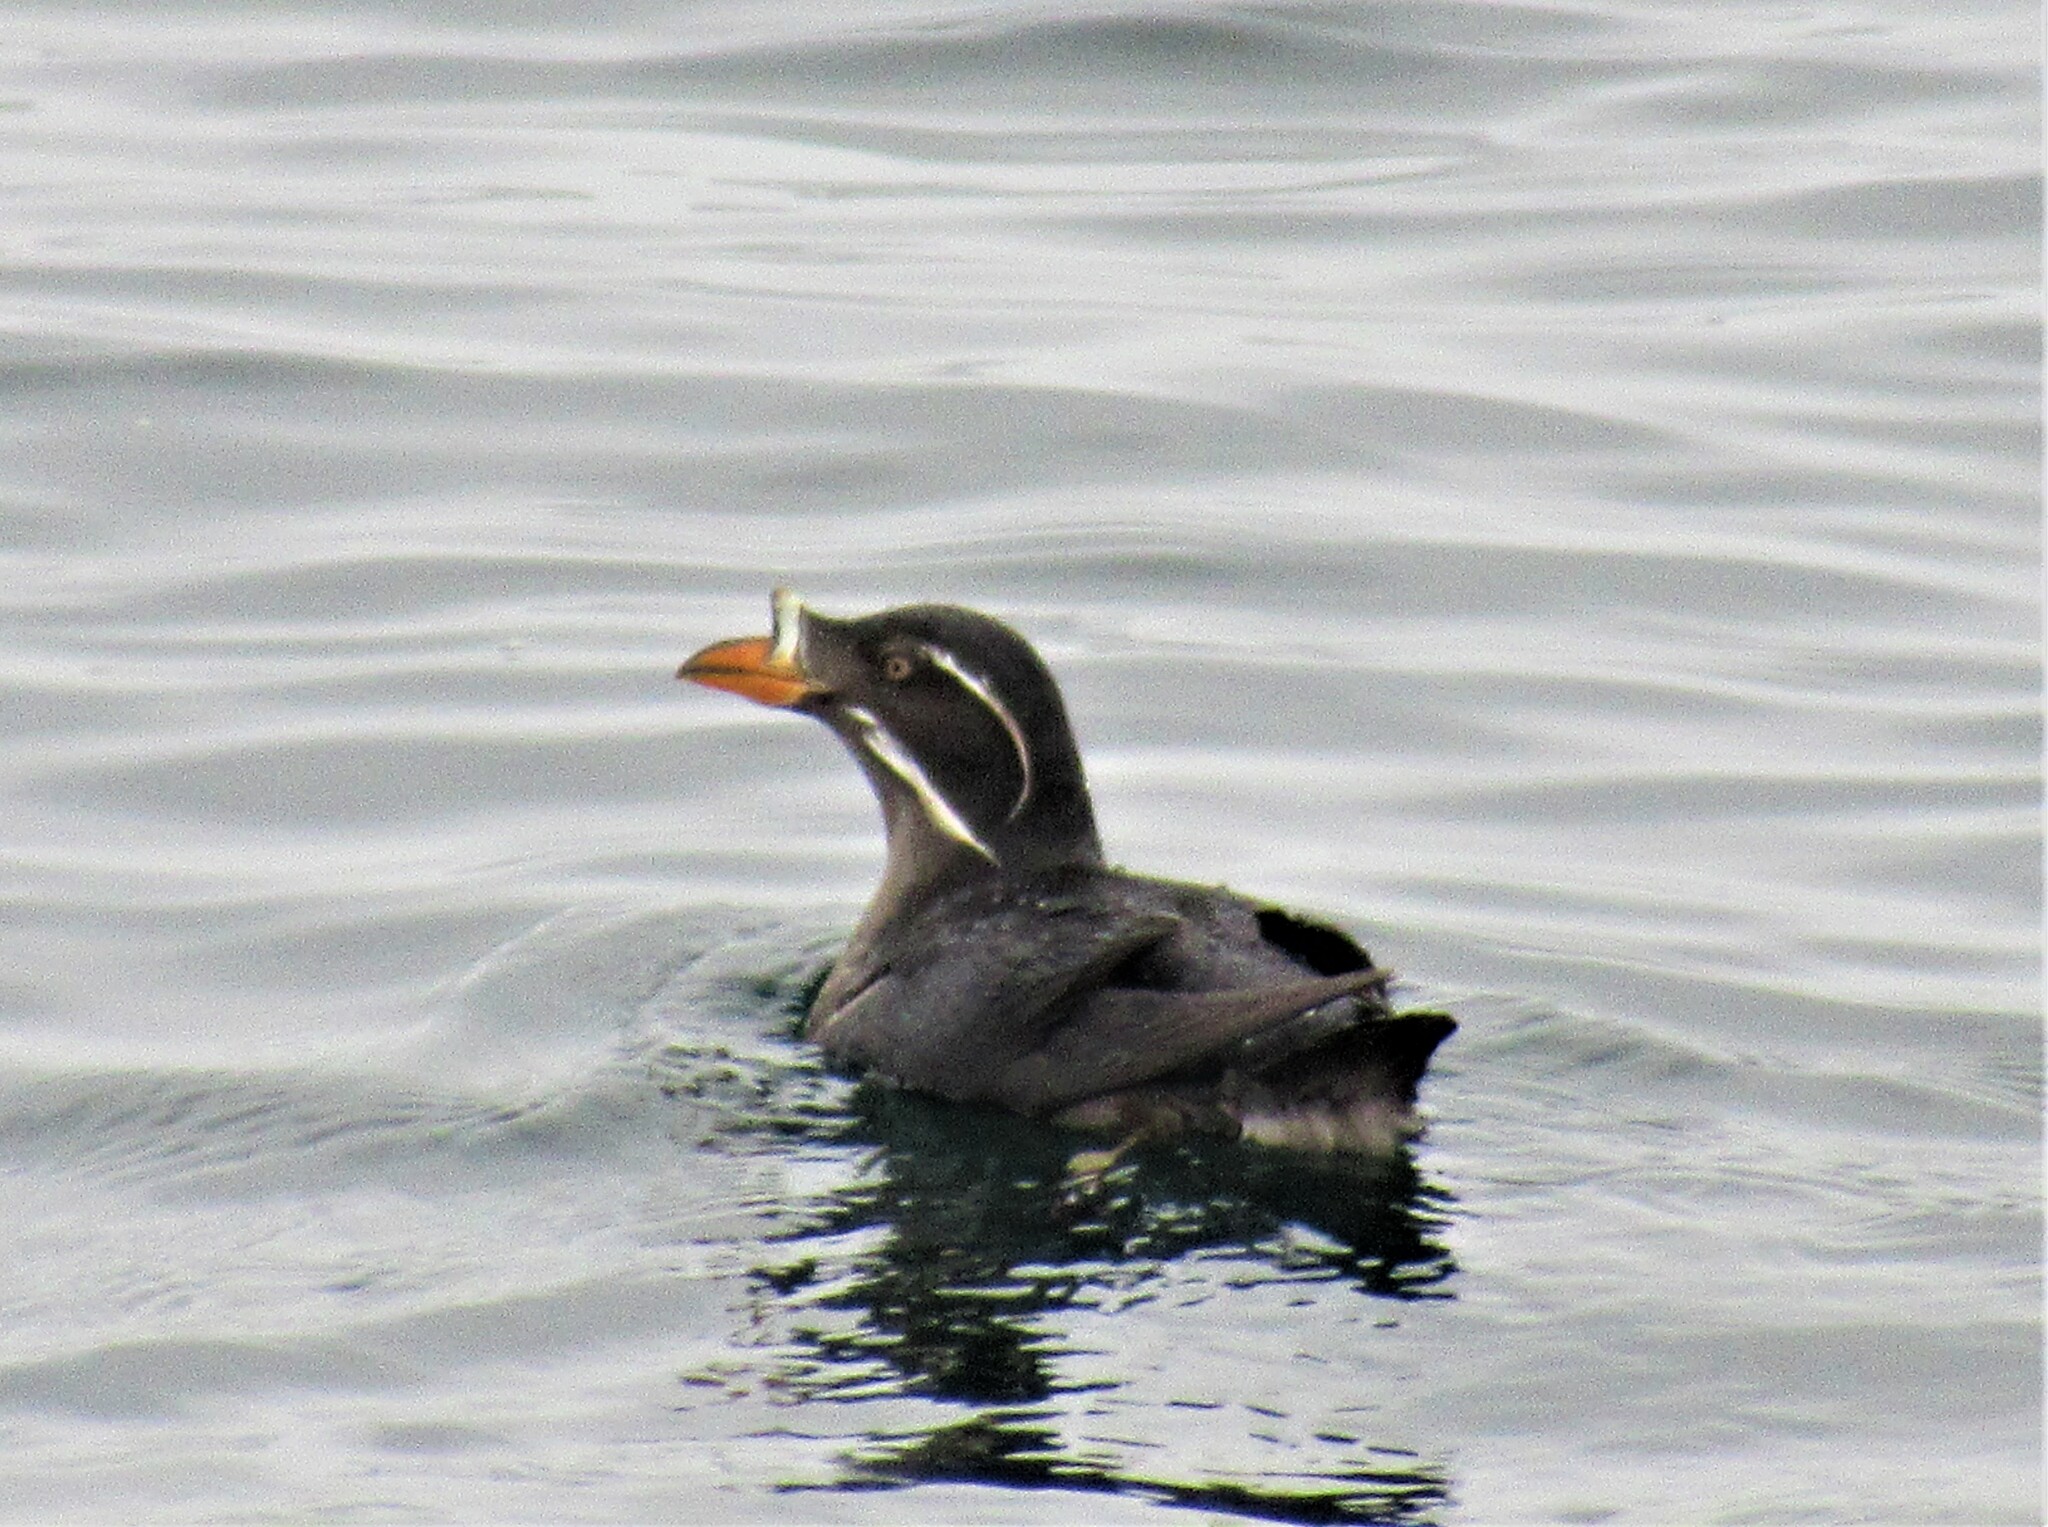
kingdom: Animalia
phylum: Chordata
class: Aves
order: Charadriiformes
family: Alcidae
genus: Cerorhinca
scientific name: Cerorhinca monocerata
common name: Rhinoceros auklet
